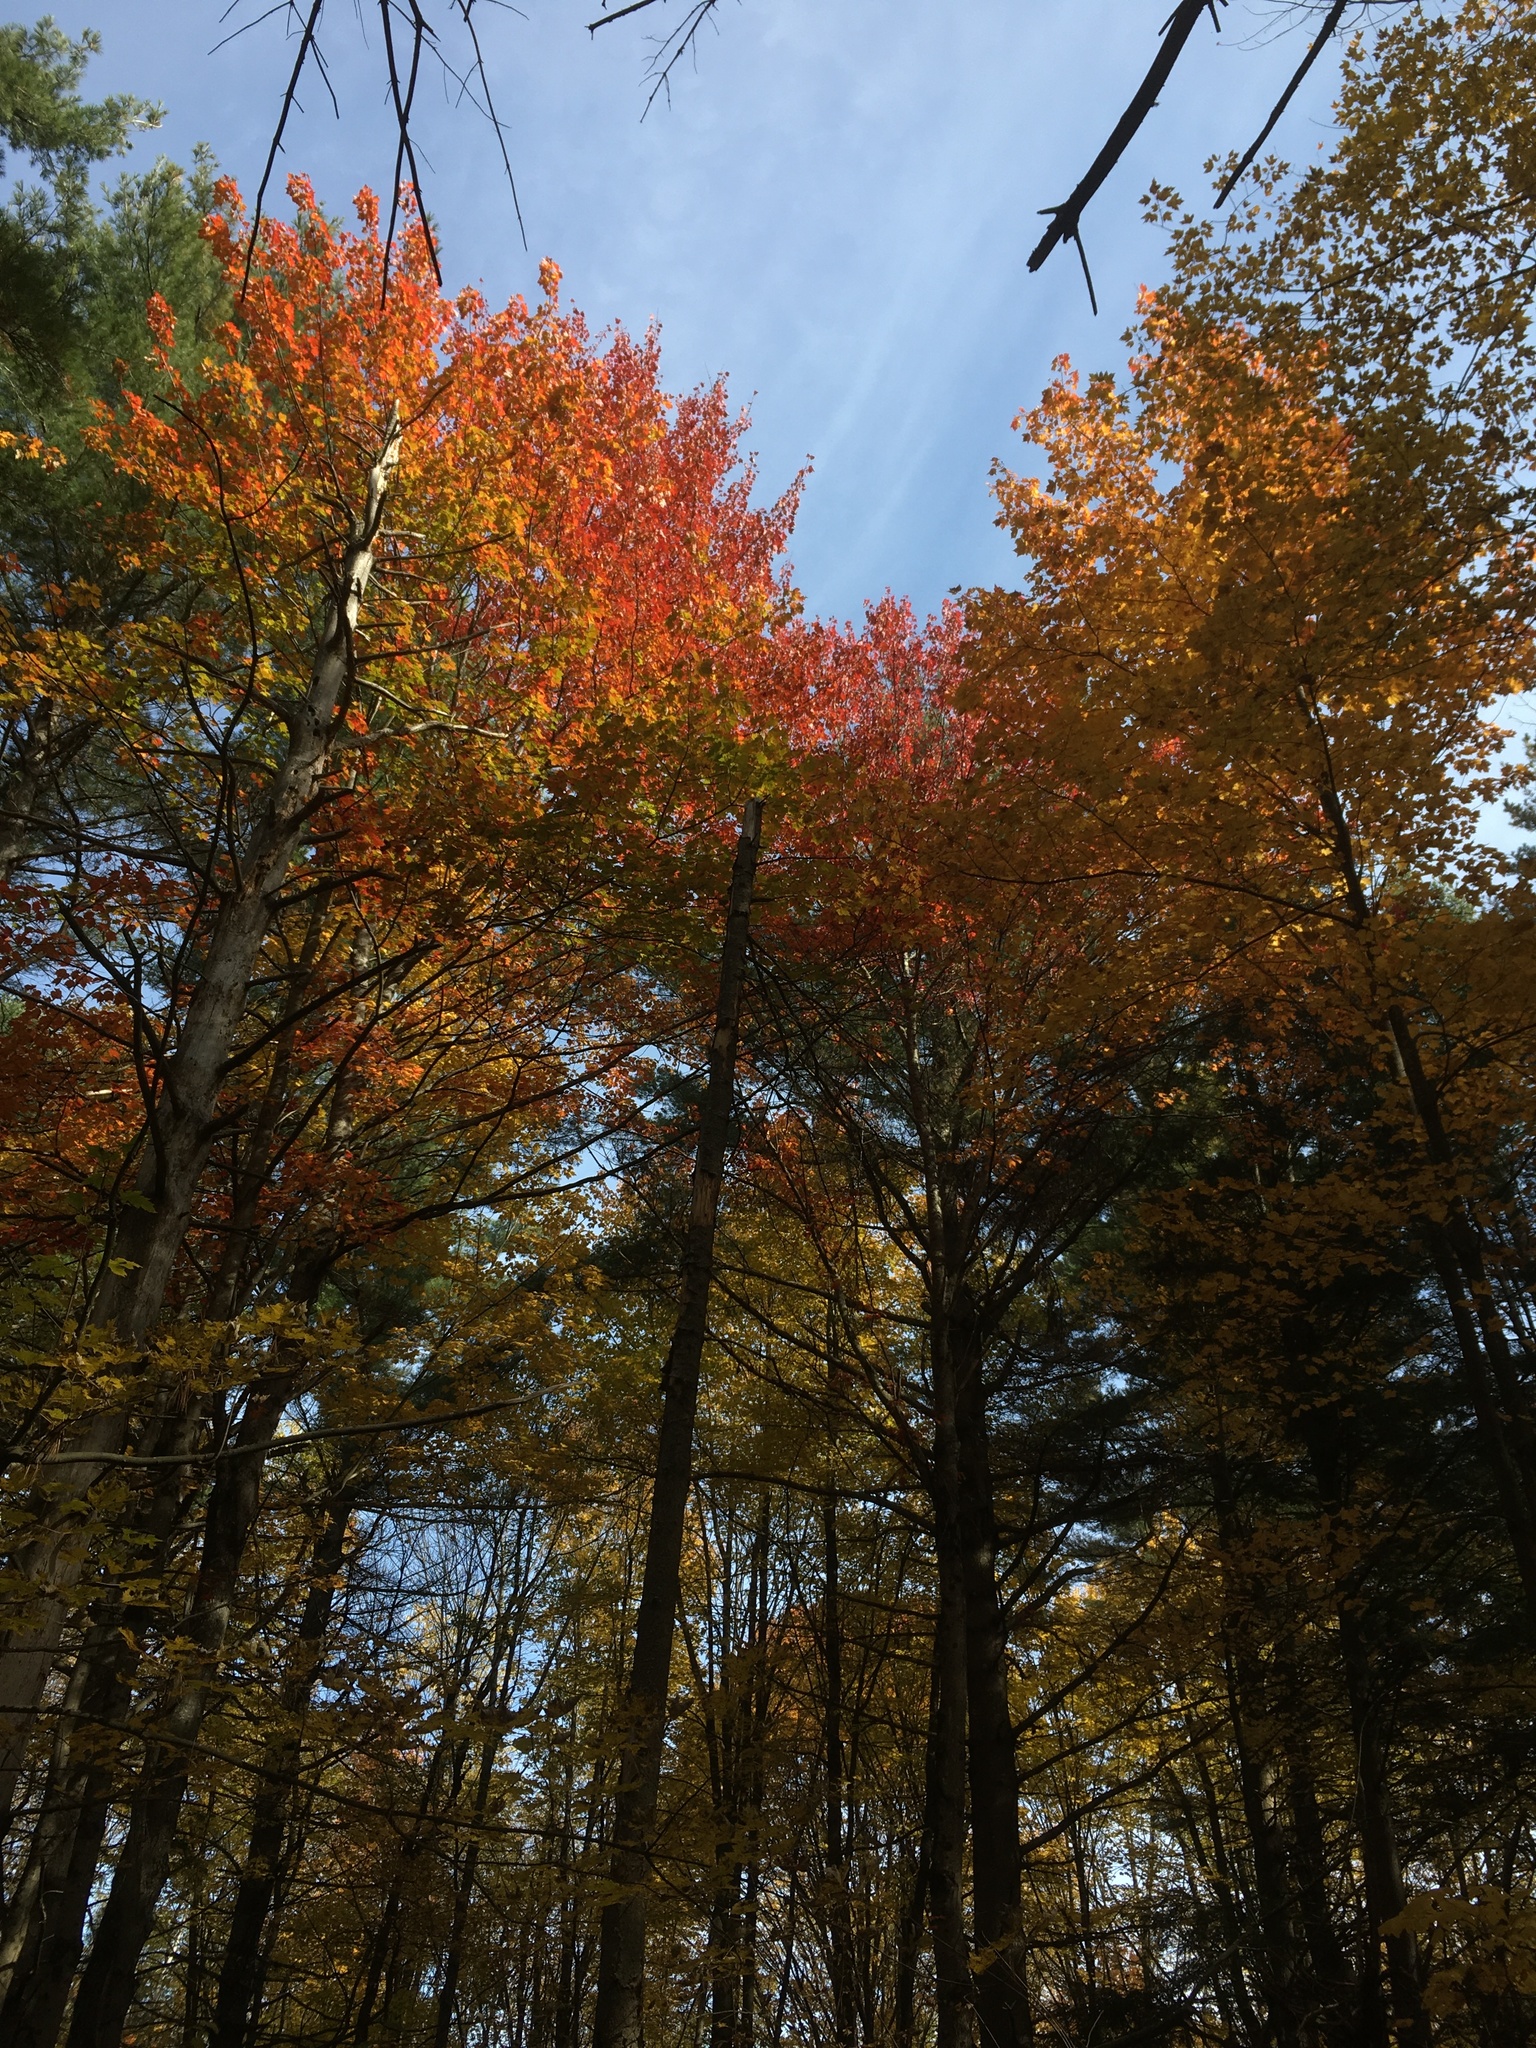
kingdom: Plantae
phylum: Tracheophyta
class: Magnoliopsida
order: Sapindales
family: Sapindaceae
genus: Acer
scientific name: Acer rubrum
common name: Red maple
